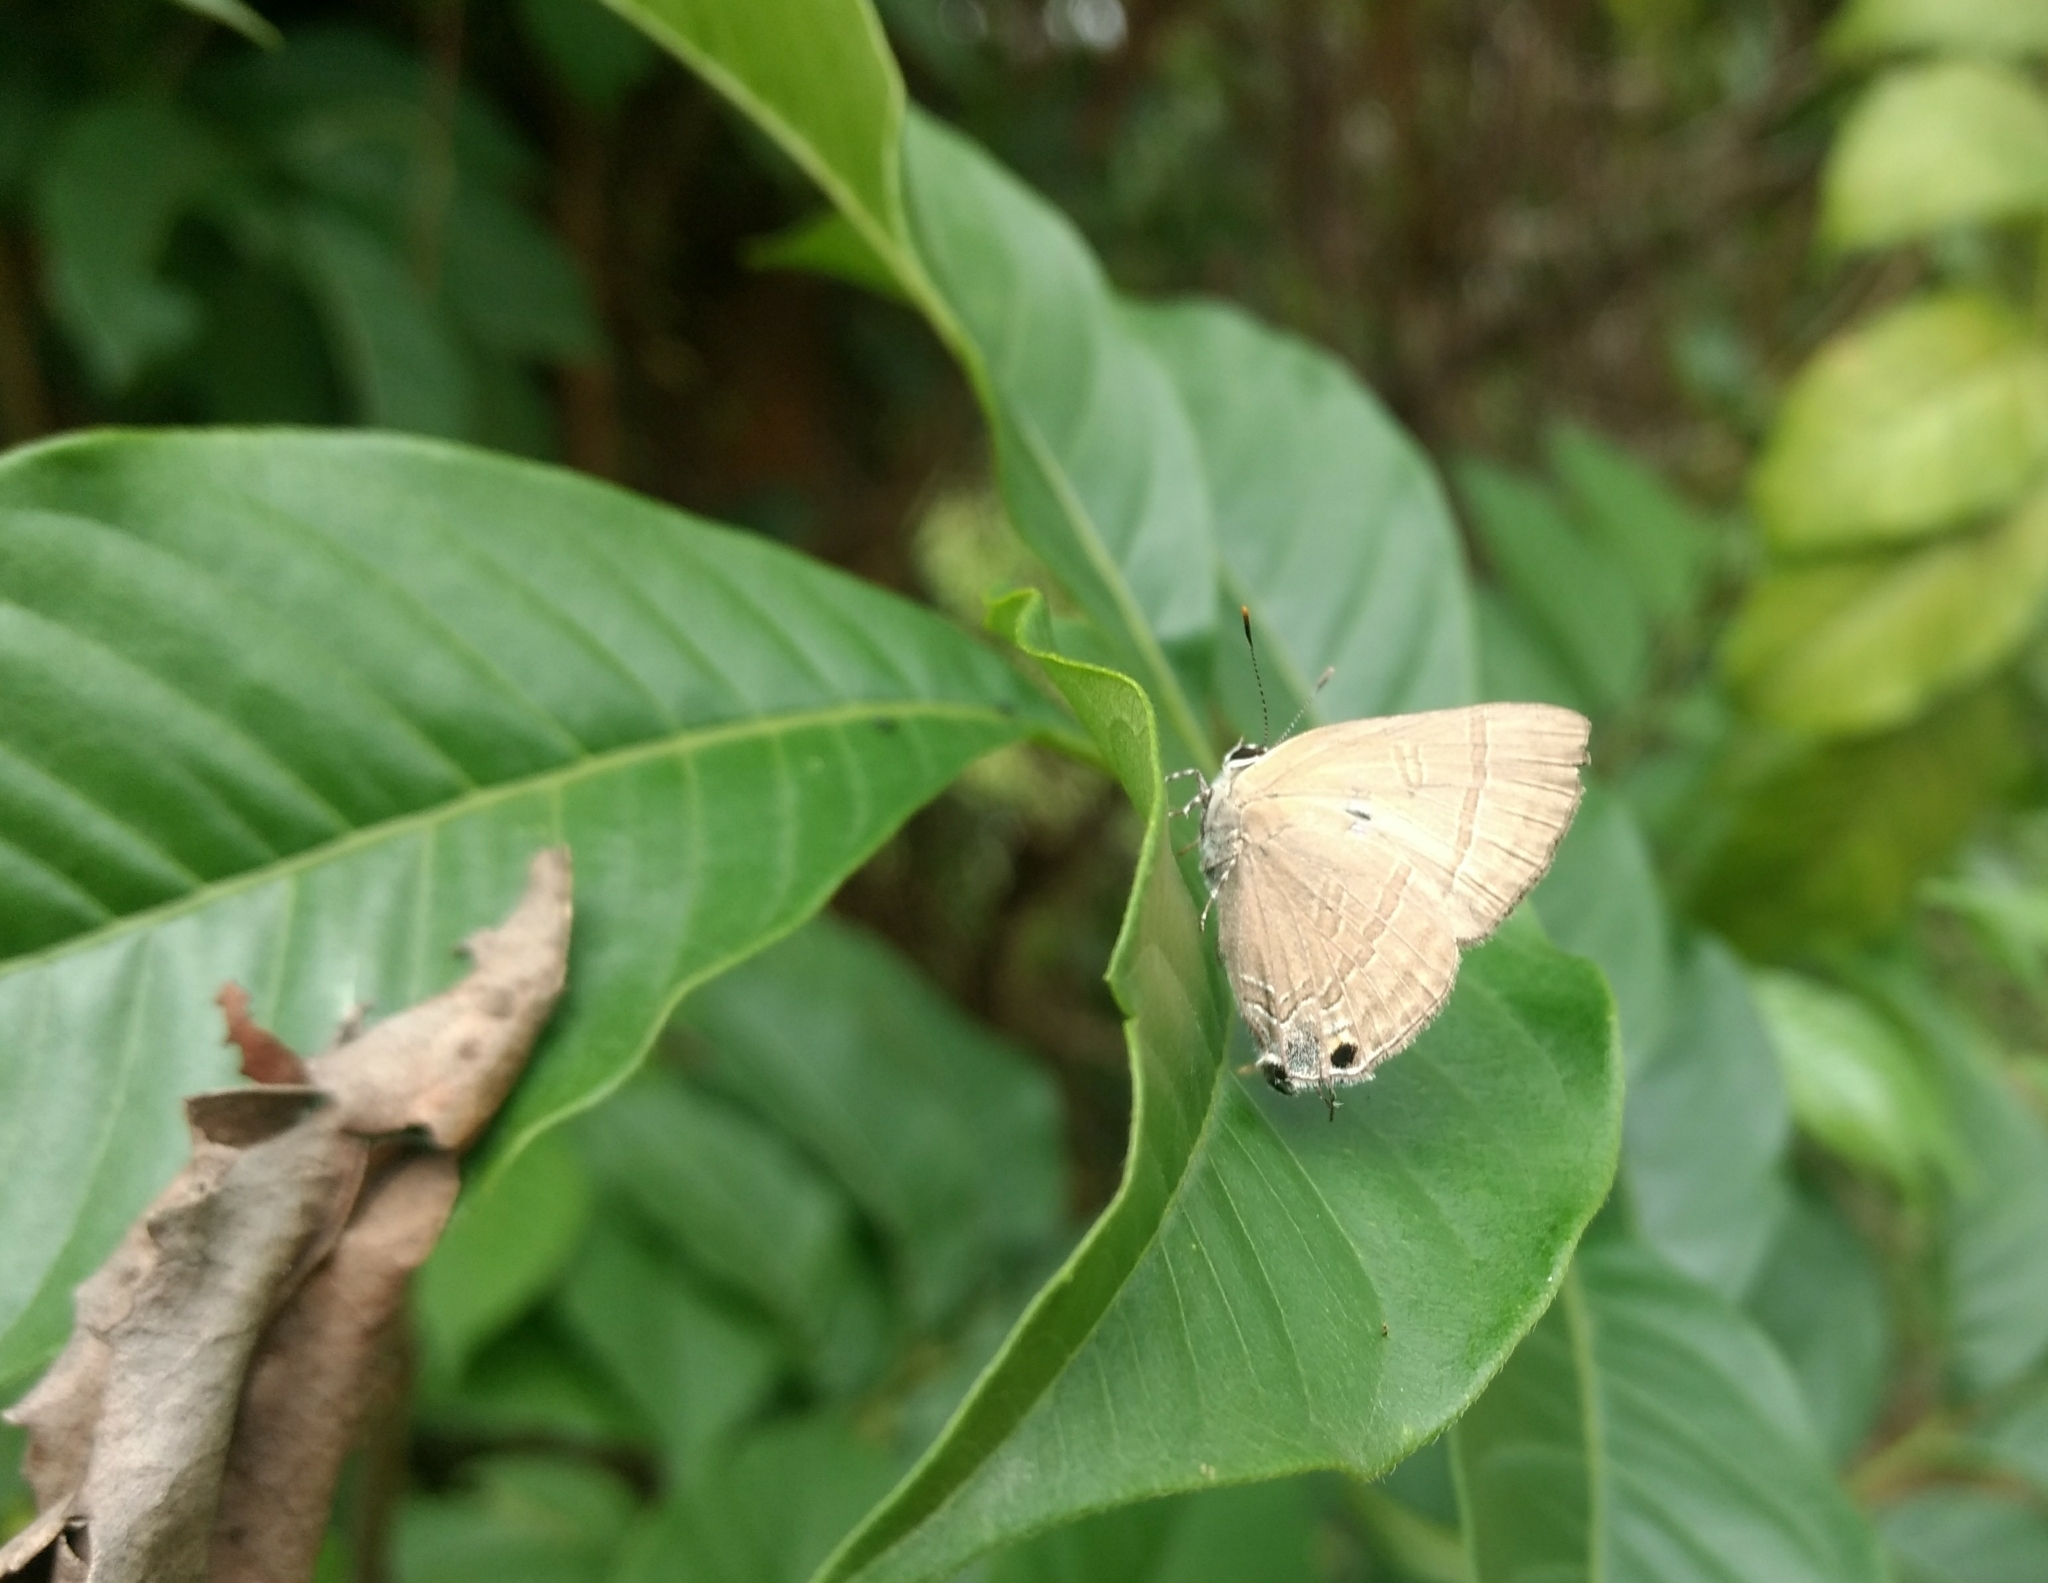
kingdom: Animalia
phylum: Arthropoda
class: Insecta
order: Lepidoptera
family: Lycaenidae
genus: Rapala
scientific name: Rapala manea
